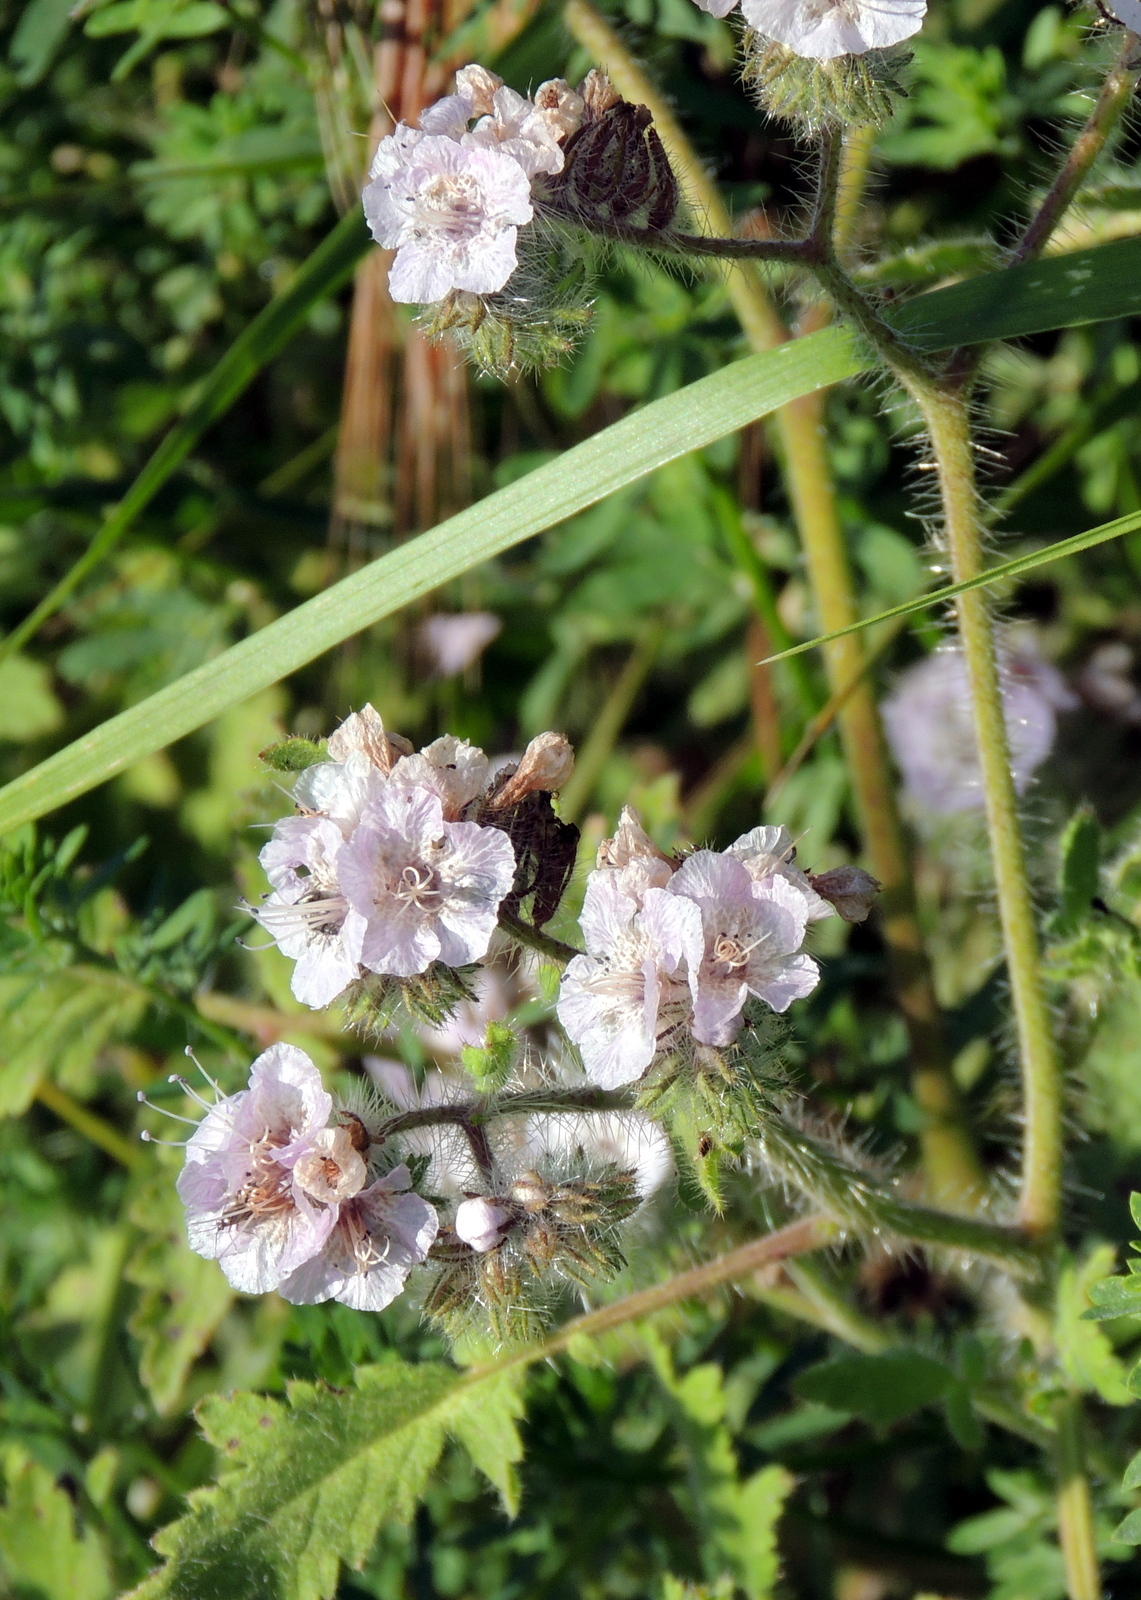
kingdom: Plantae
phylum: Tracheophyta
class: Magnoliopsida
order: Boraginales
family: Hydrophyllaceae
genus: Phacelia
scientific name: Phacelia cicutaria
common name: Caterpillar phacelia
